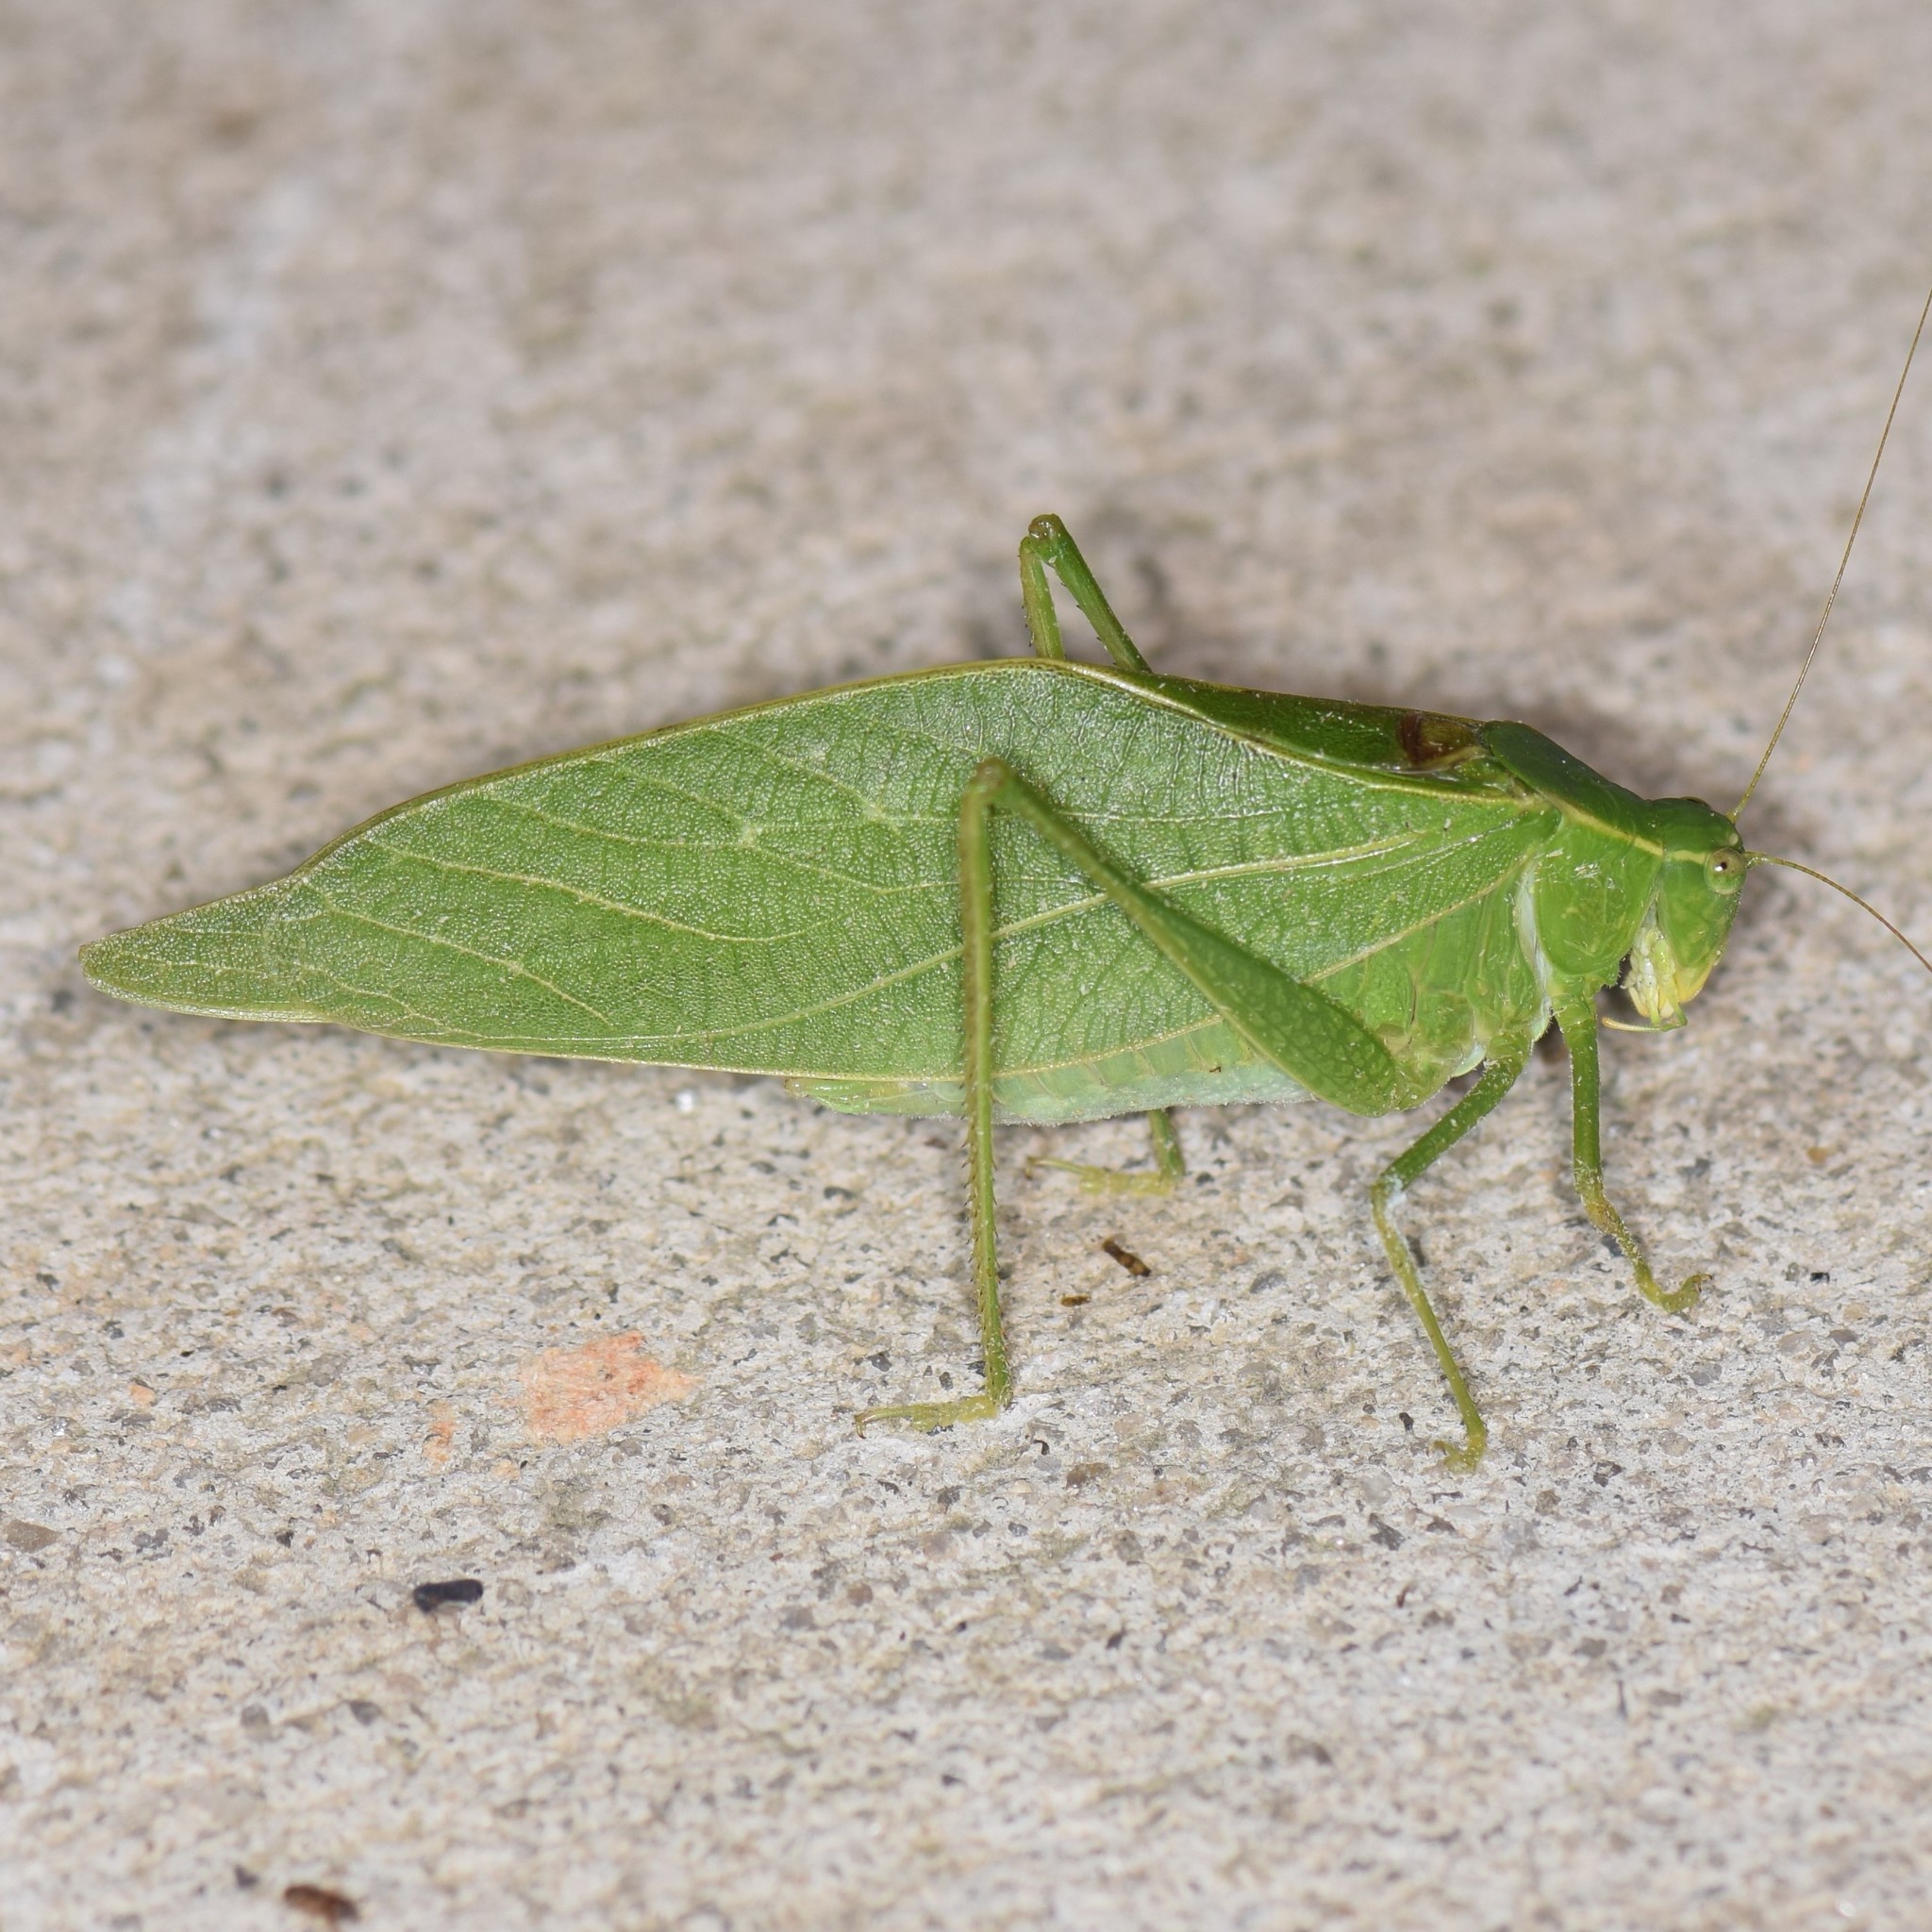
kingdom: Animalia
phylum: Arthropoda
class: Insecta
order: Orthoptera
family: Tettigoniidae
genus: Microcentrum
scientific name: Microcentrum retinerve
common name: Angular-winged katydid
